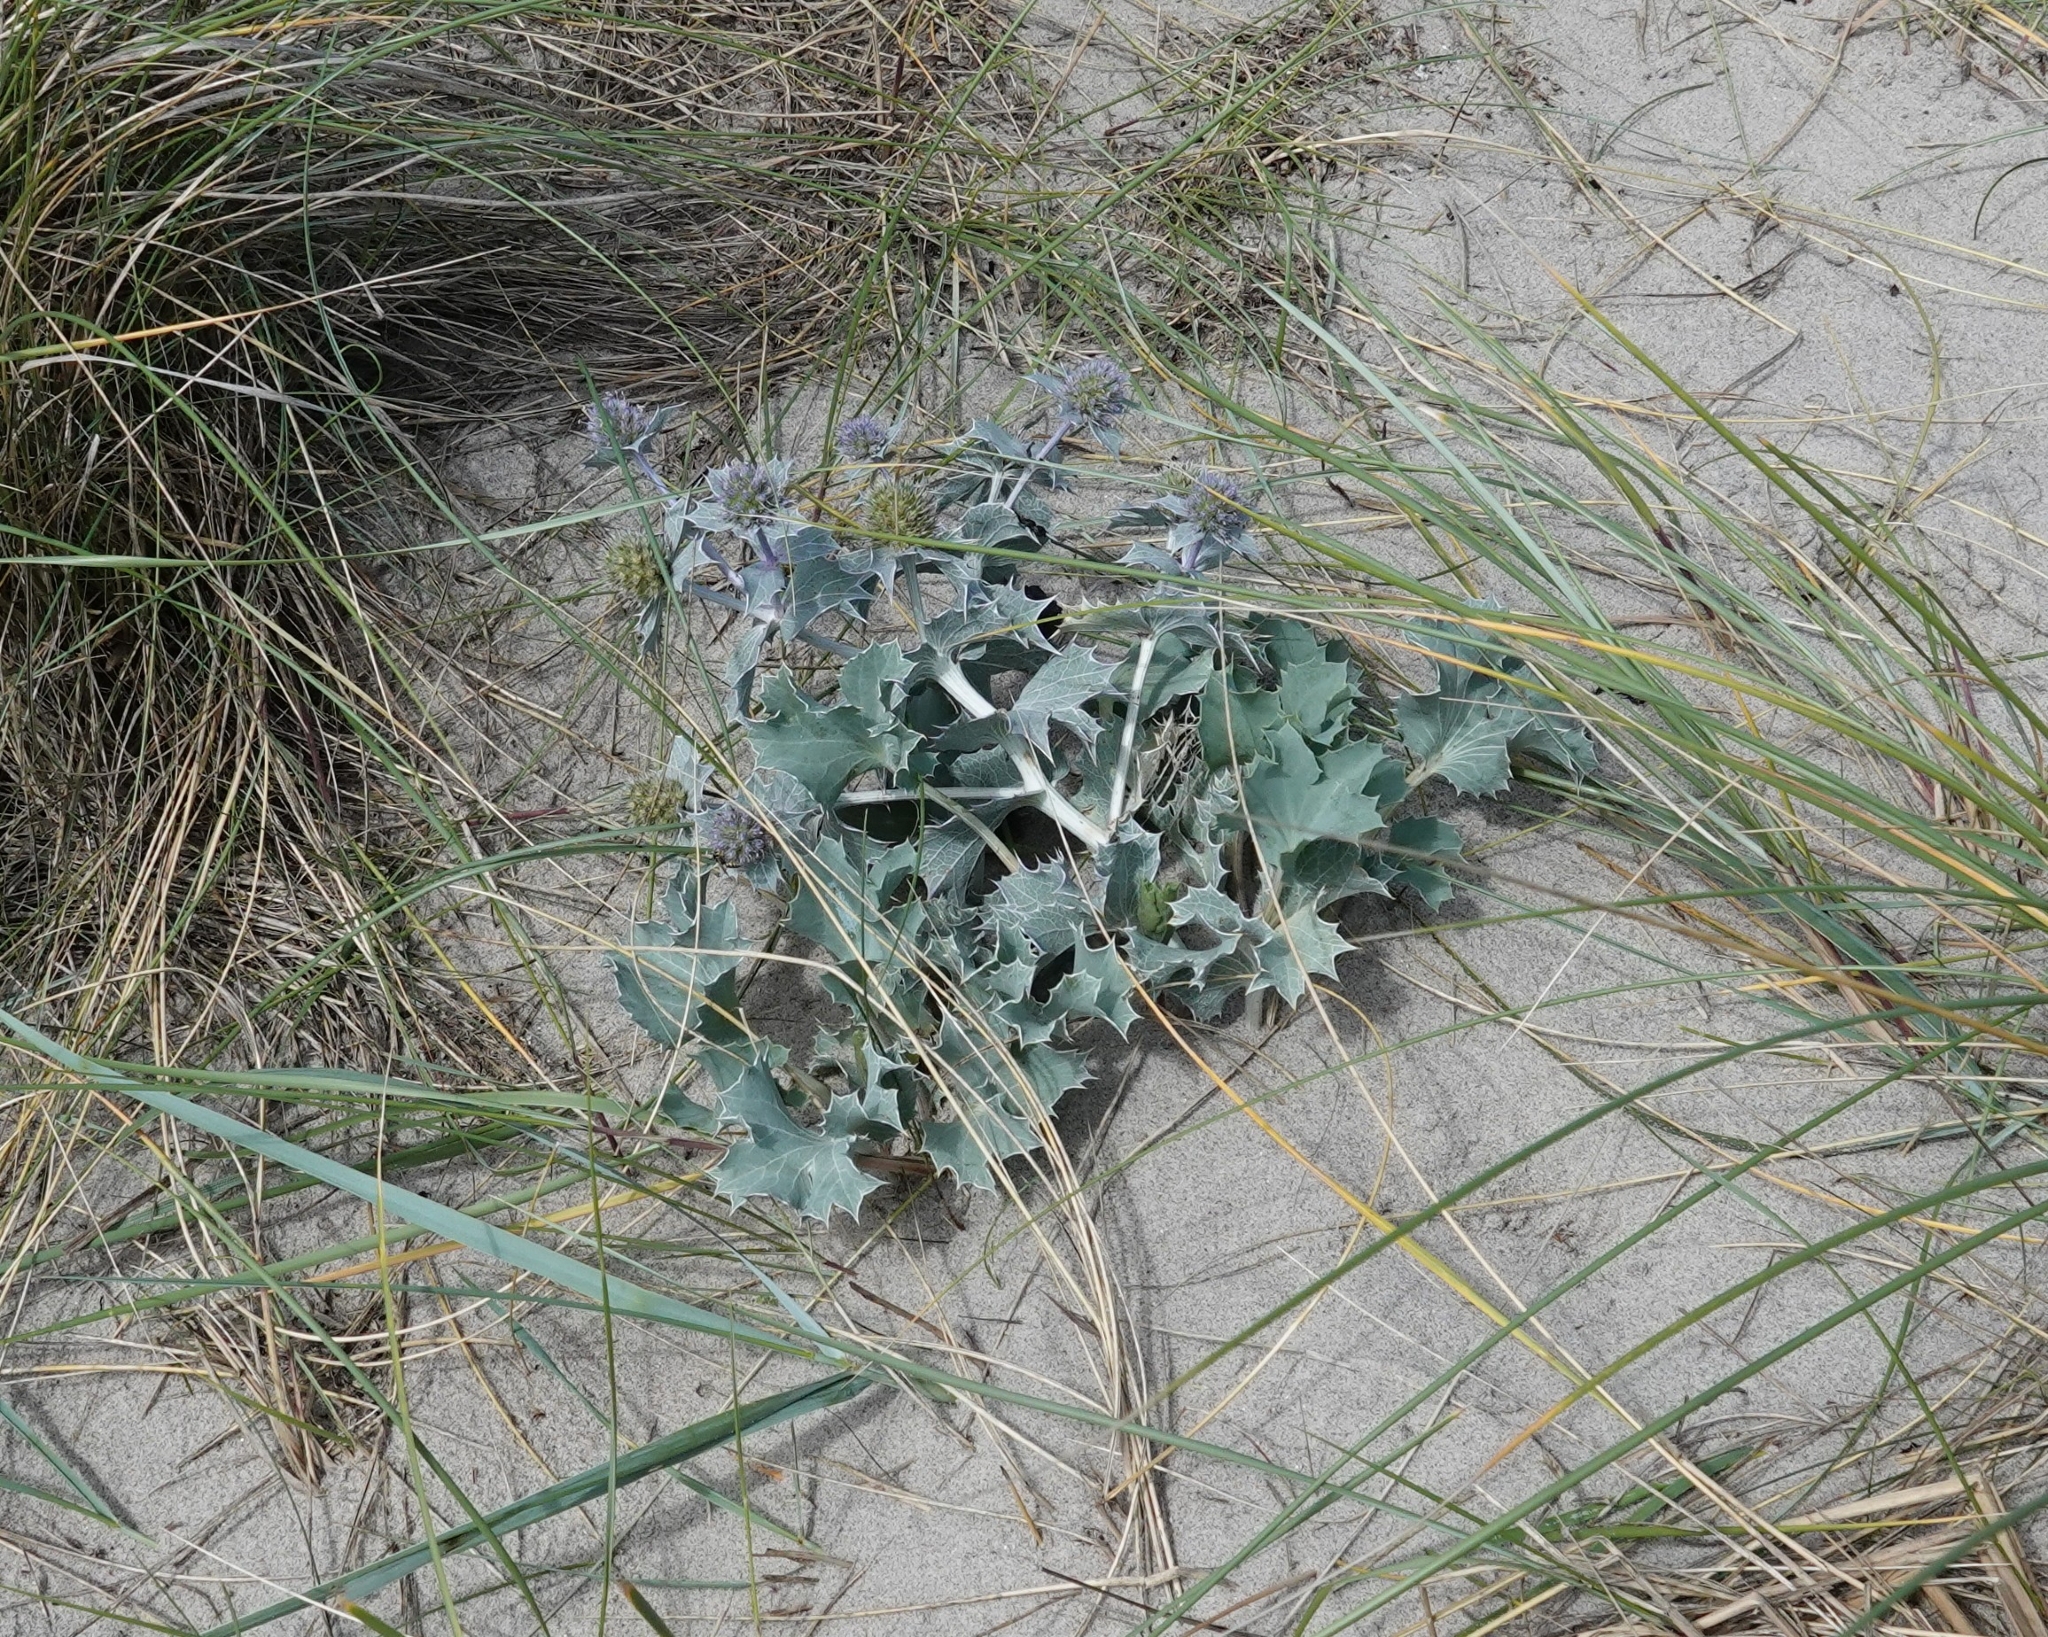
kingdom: Plantae
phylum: Tracheophyta
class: Magnoliopsida
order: Apiales
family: Apiaceae
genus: Eryngium
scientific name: Eryngium maritimum
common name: Sea-holly
